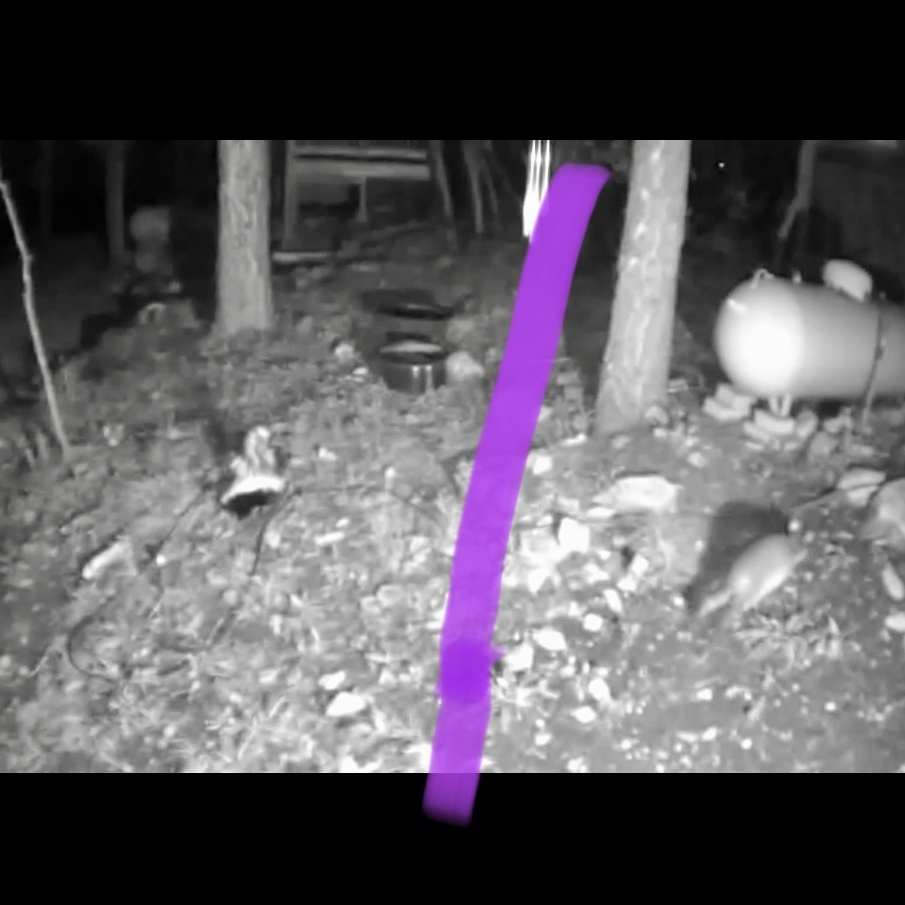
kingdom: Animalia
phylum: Chordata
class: Mammalia
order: Carnivora
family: Mephitidae
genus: Mephitis
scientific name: Mephitis mephitis
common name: Striped skunk
